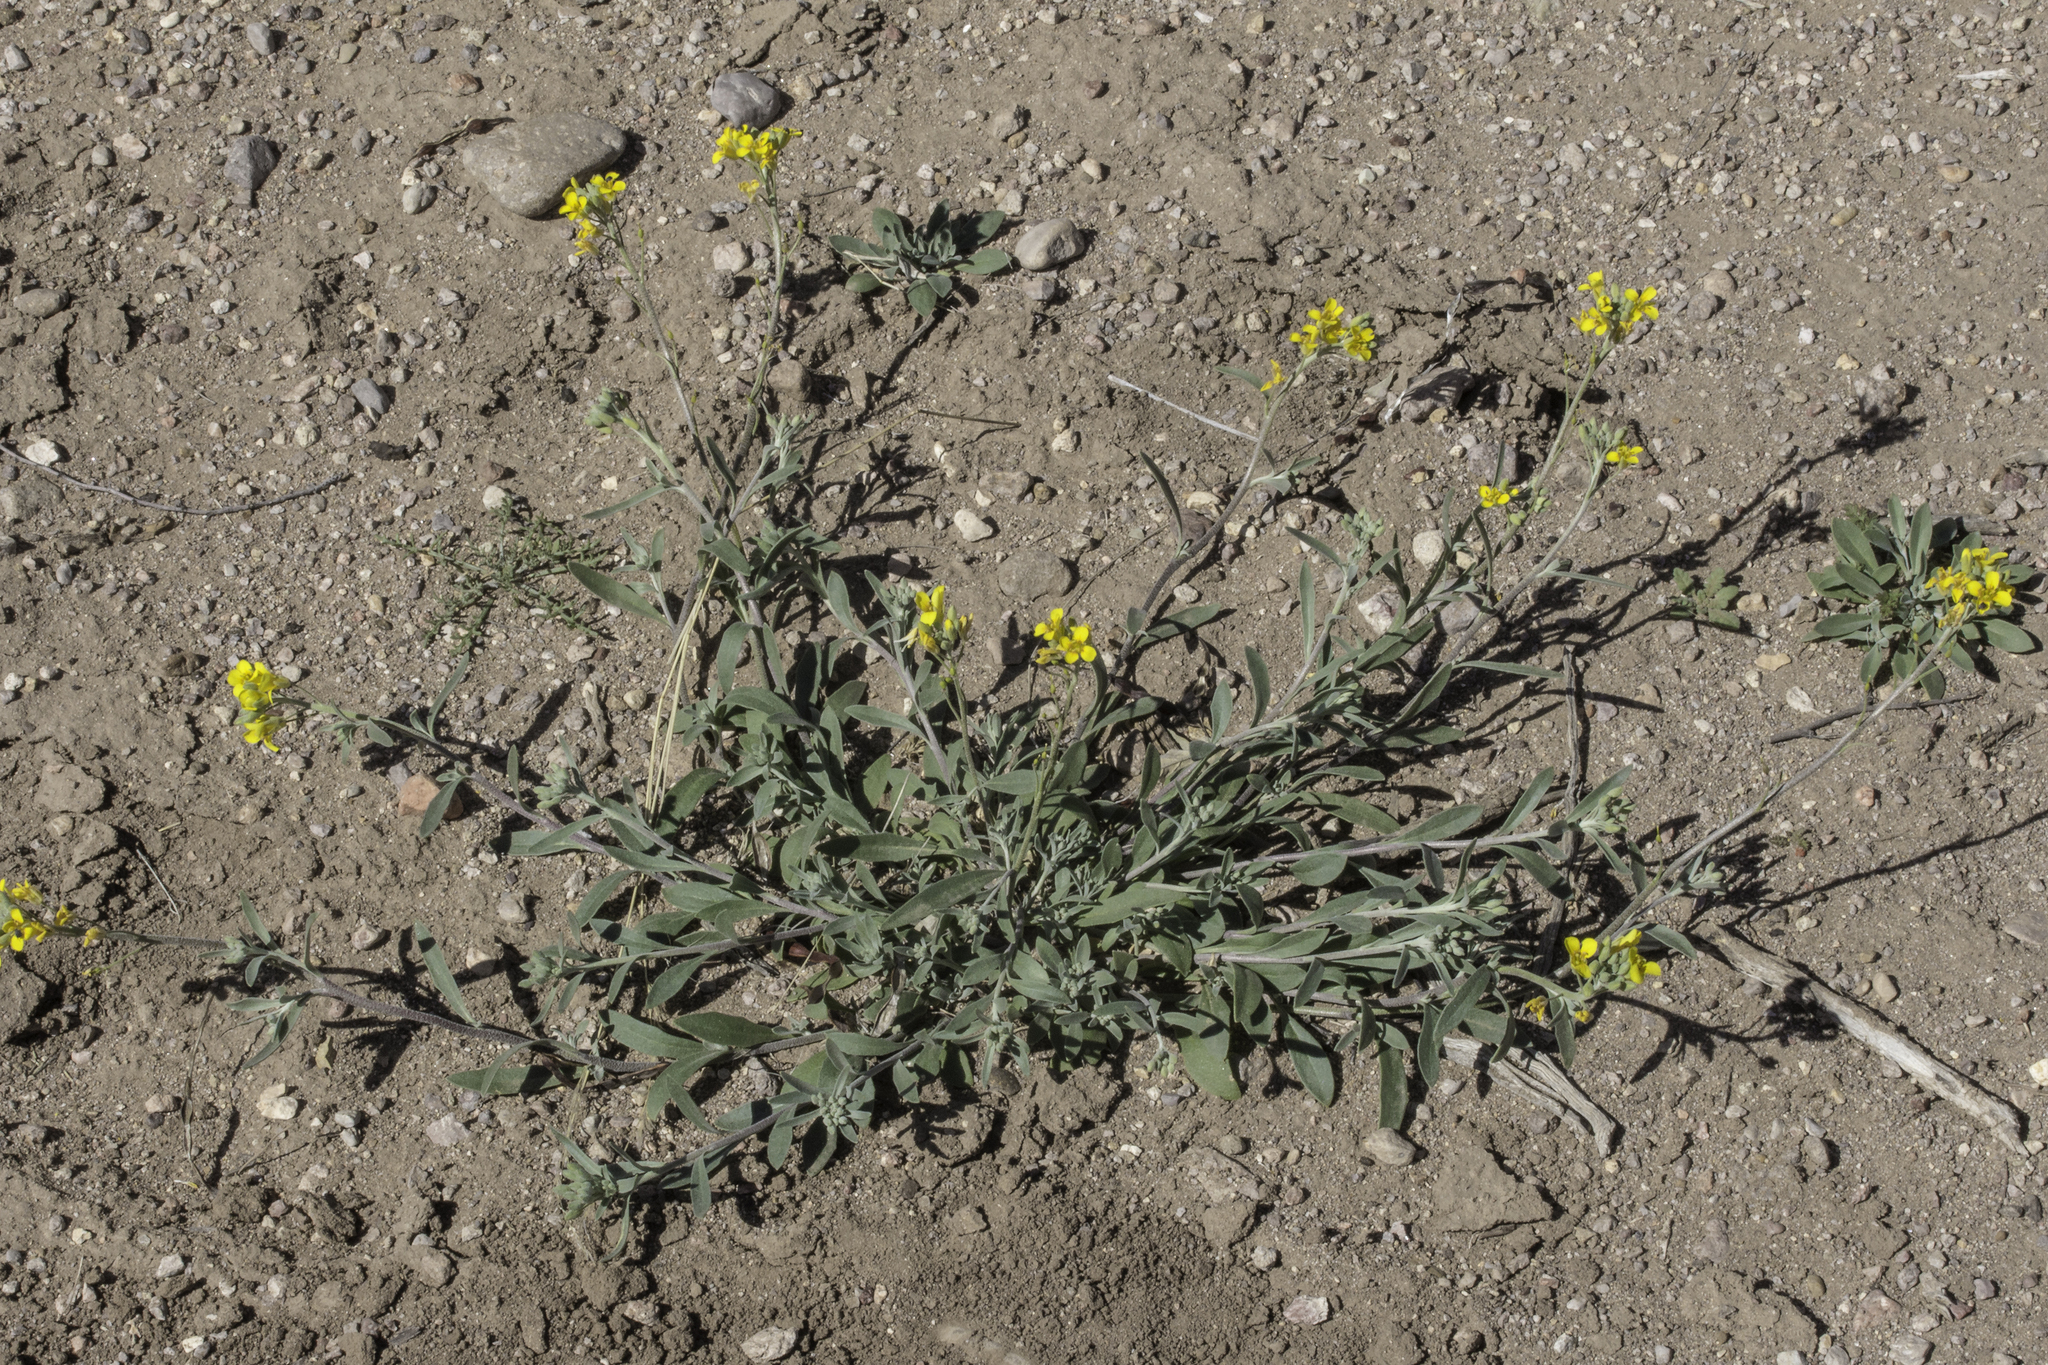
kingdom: Plantae
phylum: Tracheophyta
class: Magnoliopsida
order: Brassicales
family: Brassicaceae
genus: Physaria
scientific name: Physaria gordonii
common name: Gordon's bladderpod
